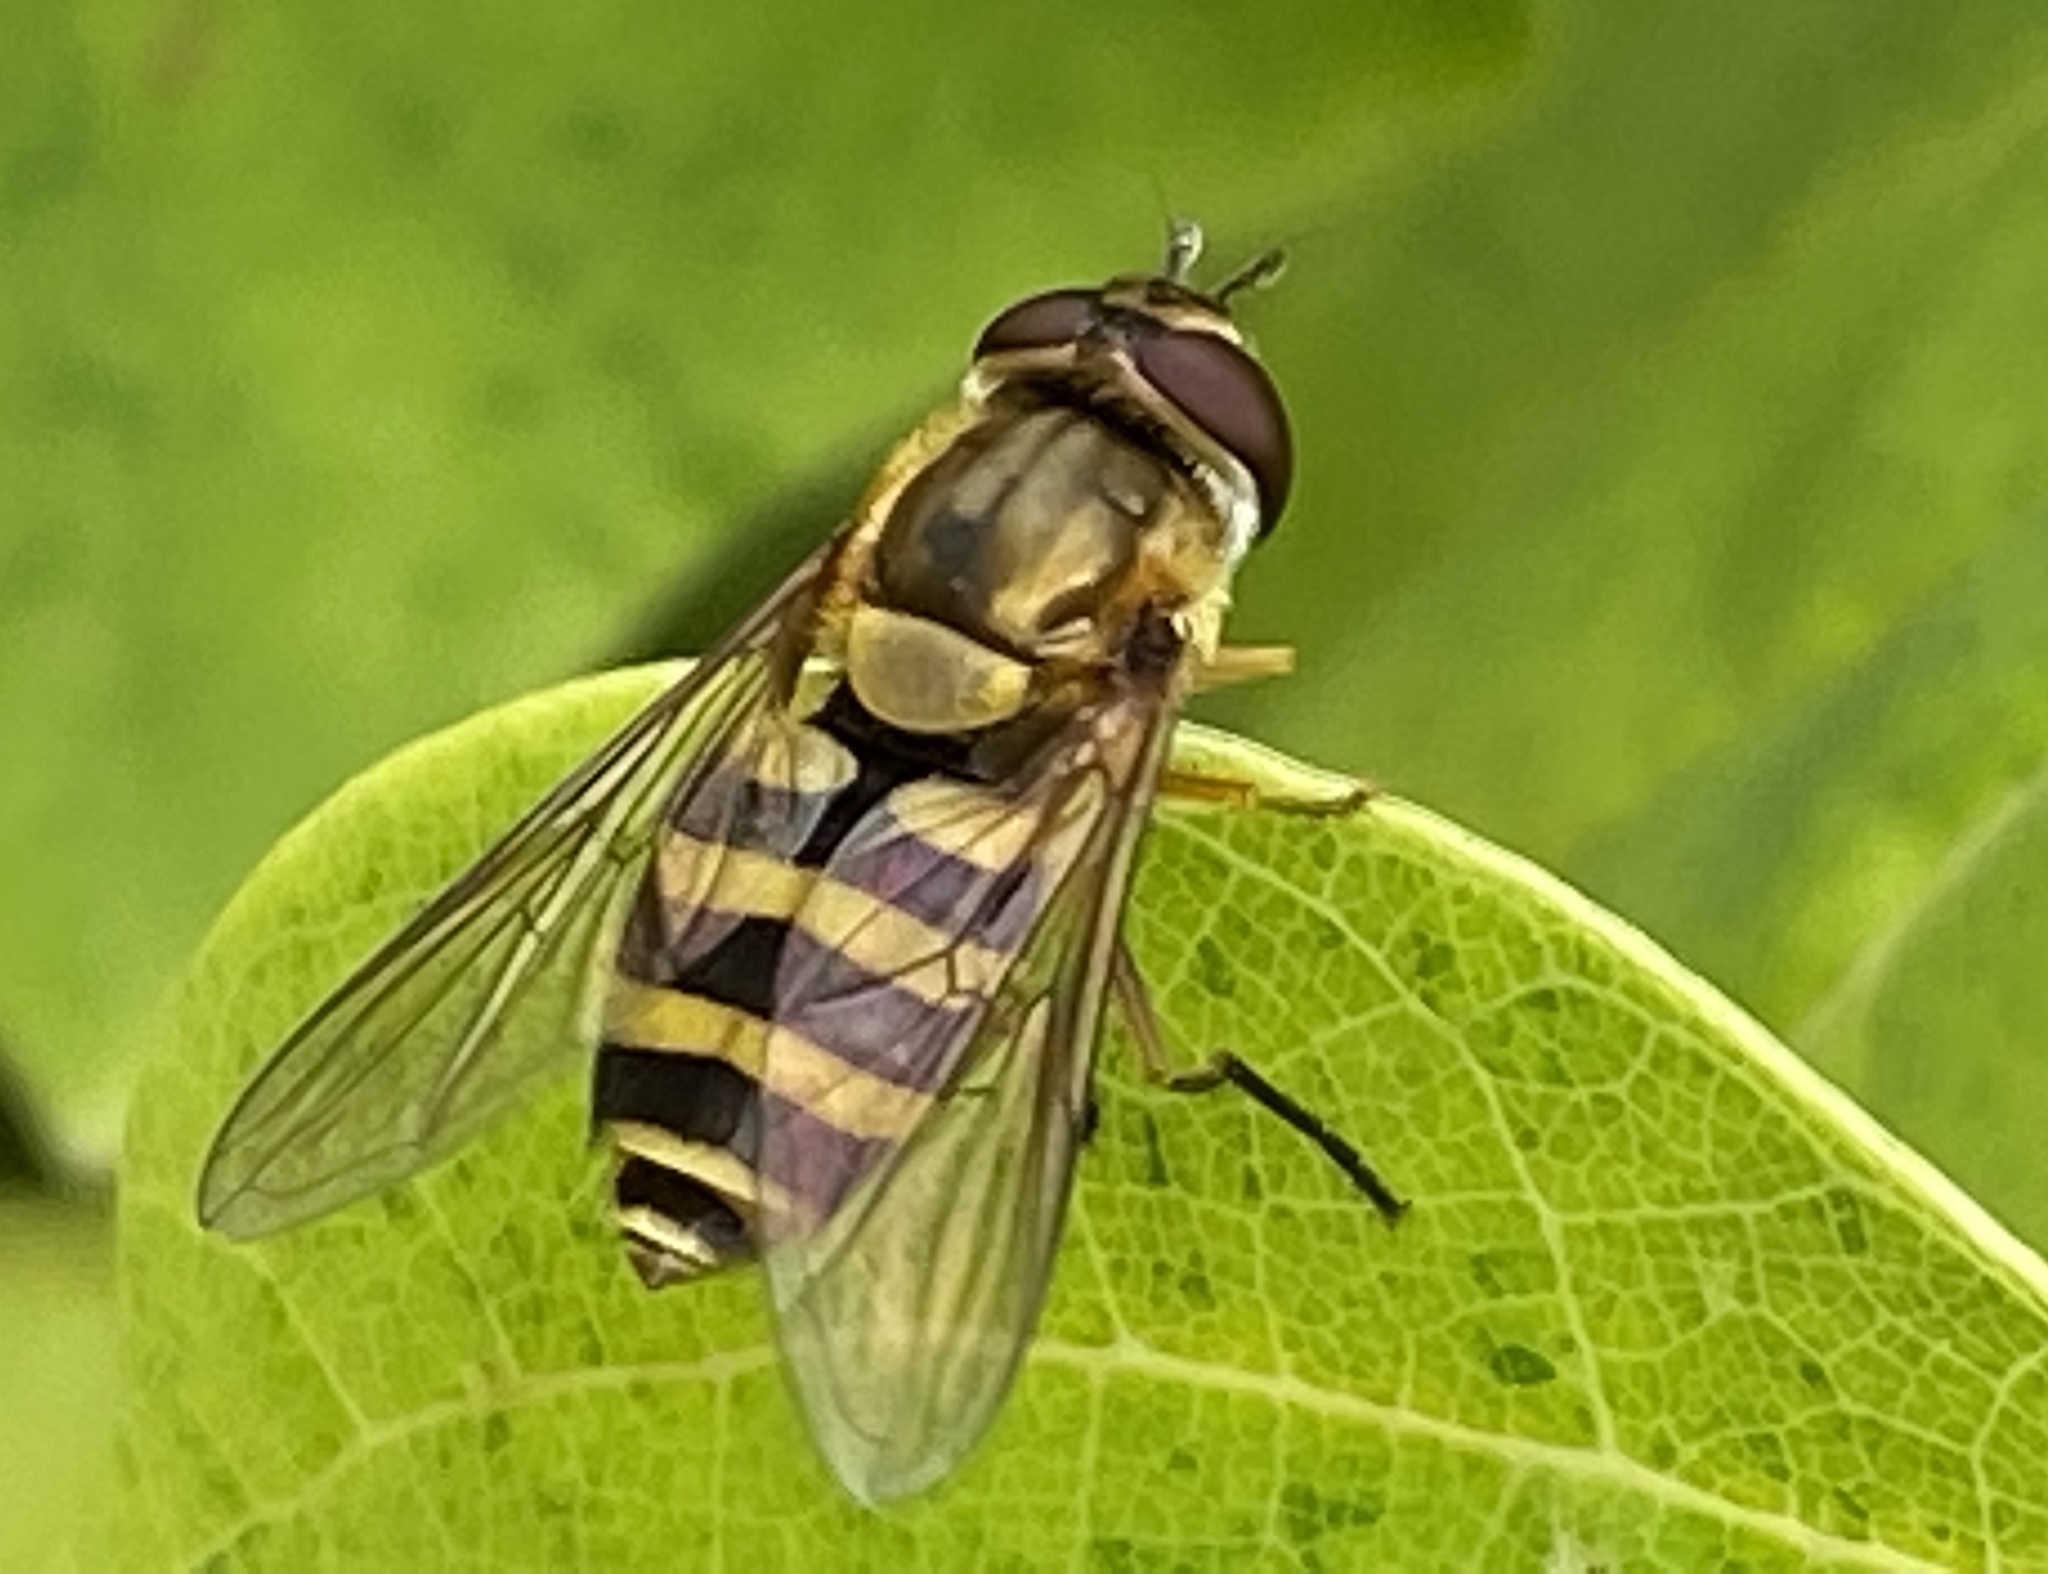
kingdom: Animalia
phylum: Arthropoda
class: Insecta
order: Diptera
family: Syrphidae
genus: Syrphus
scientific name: Syrphus ribesii
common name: Common flower fly
